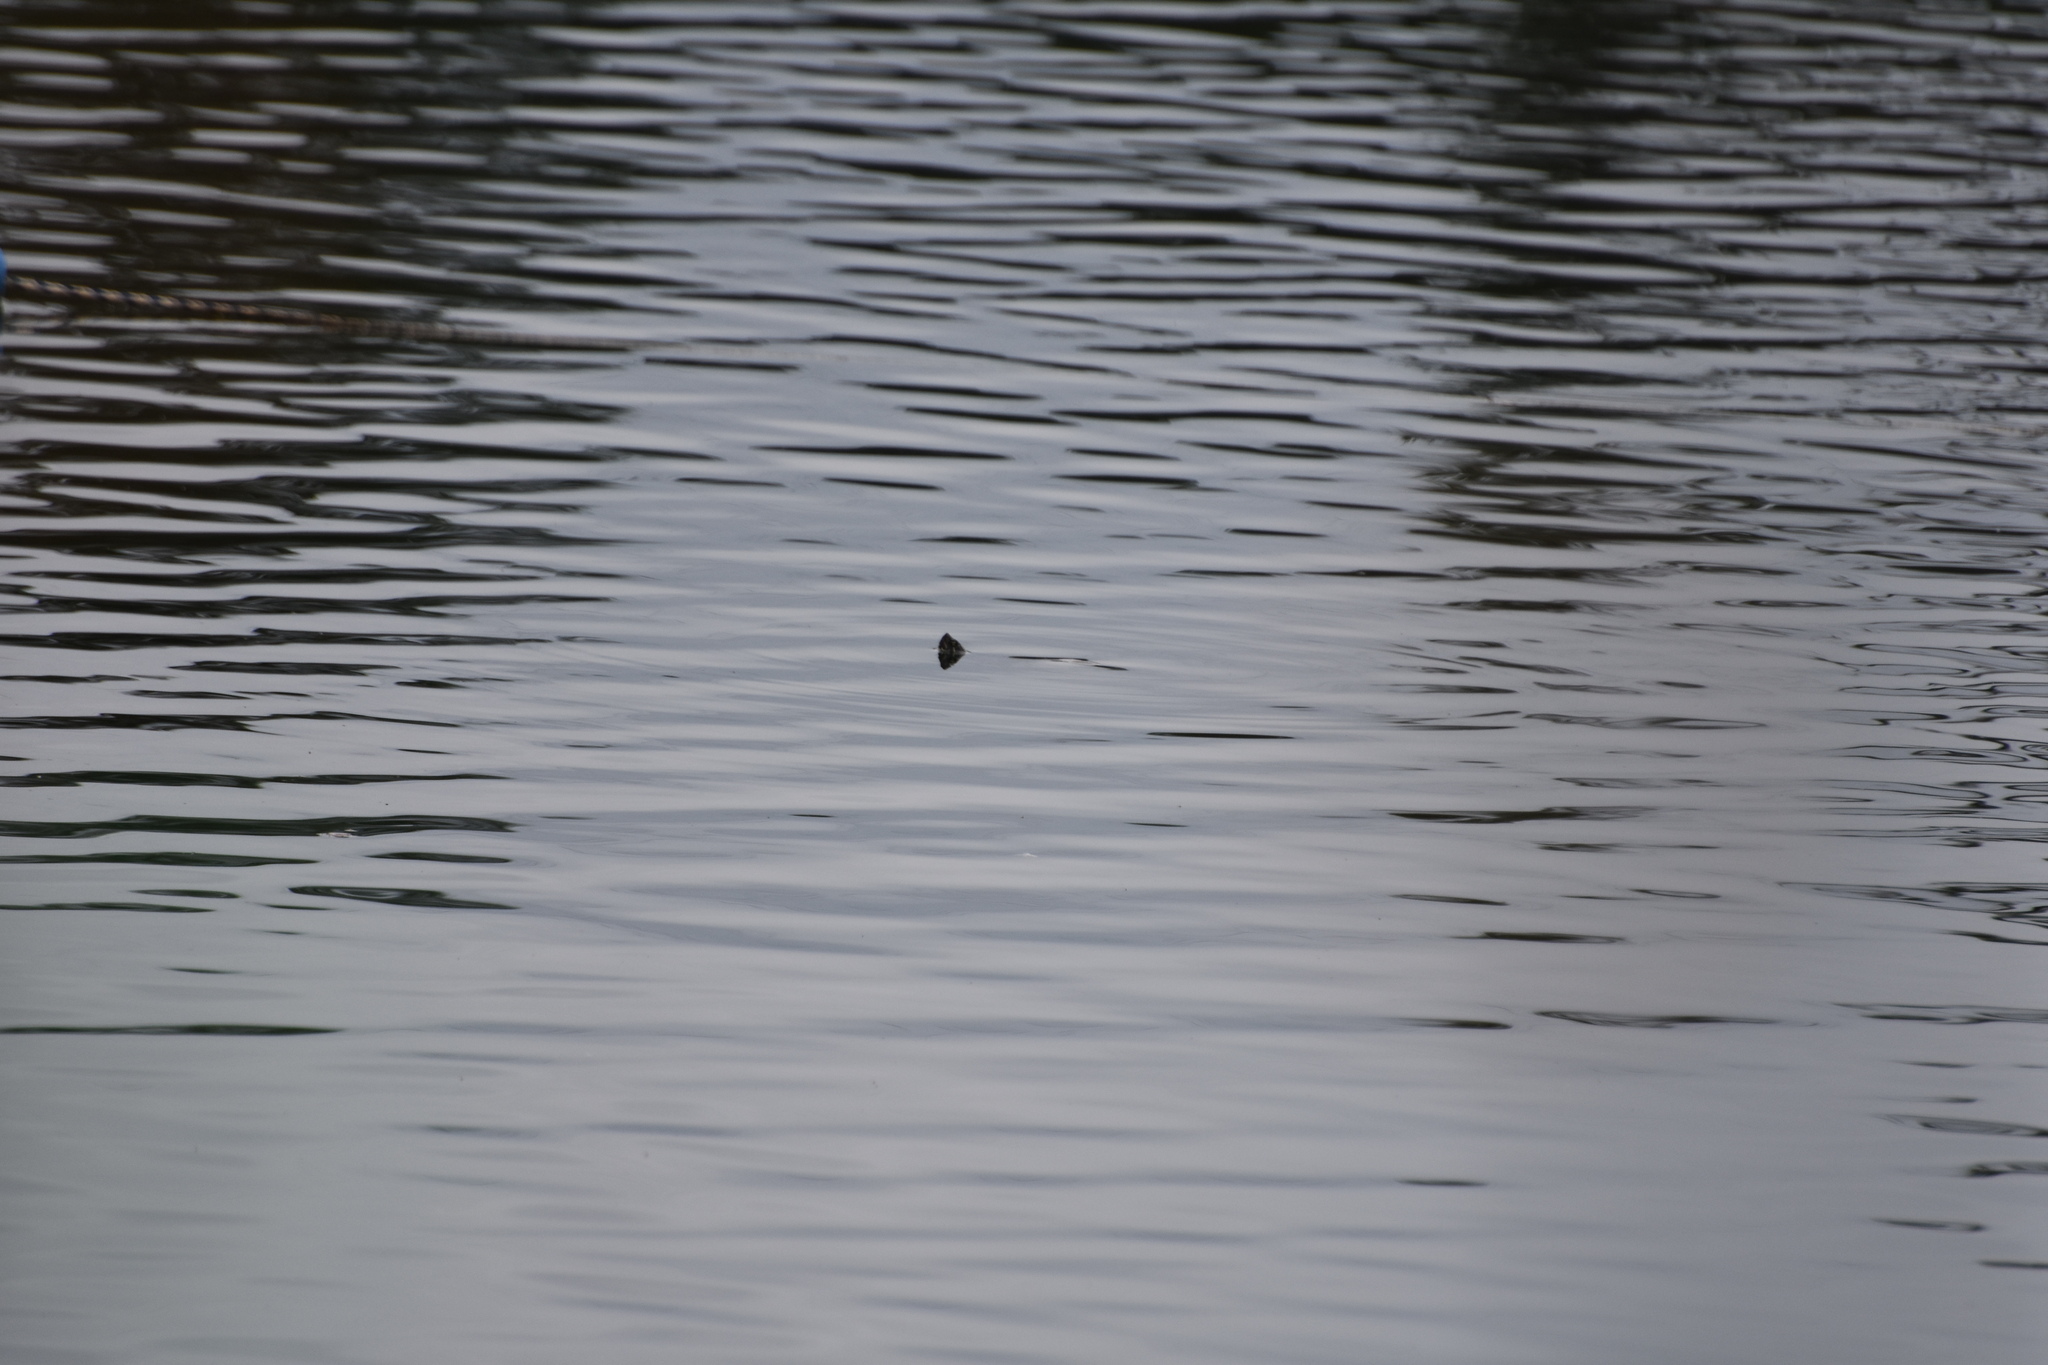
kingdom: Animalia
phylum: Chordata
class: Testudines
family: Emydidae
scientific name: Emydidae
